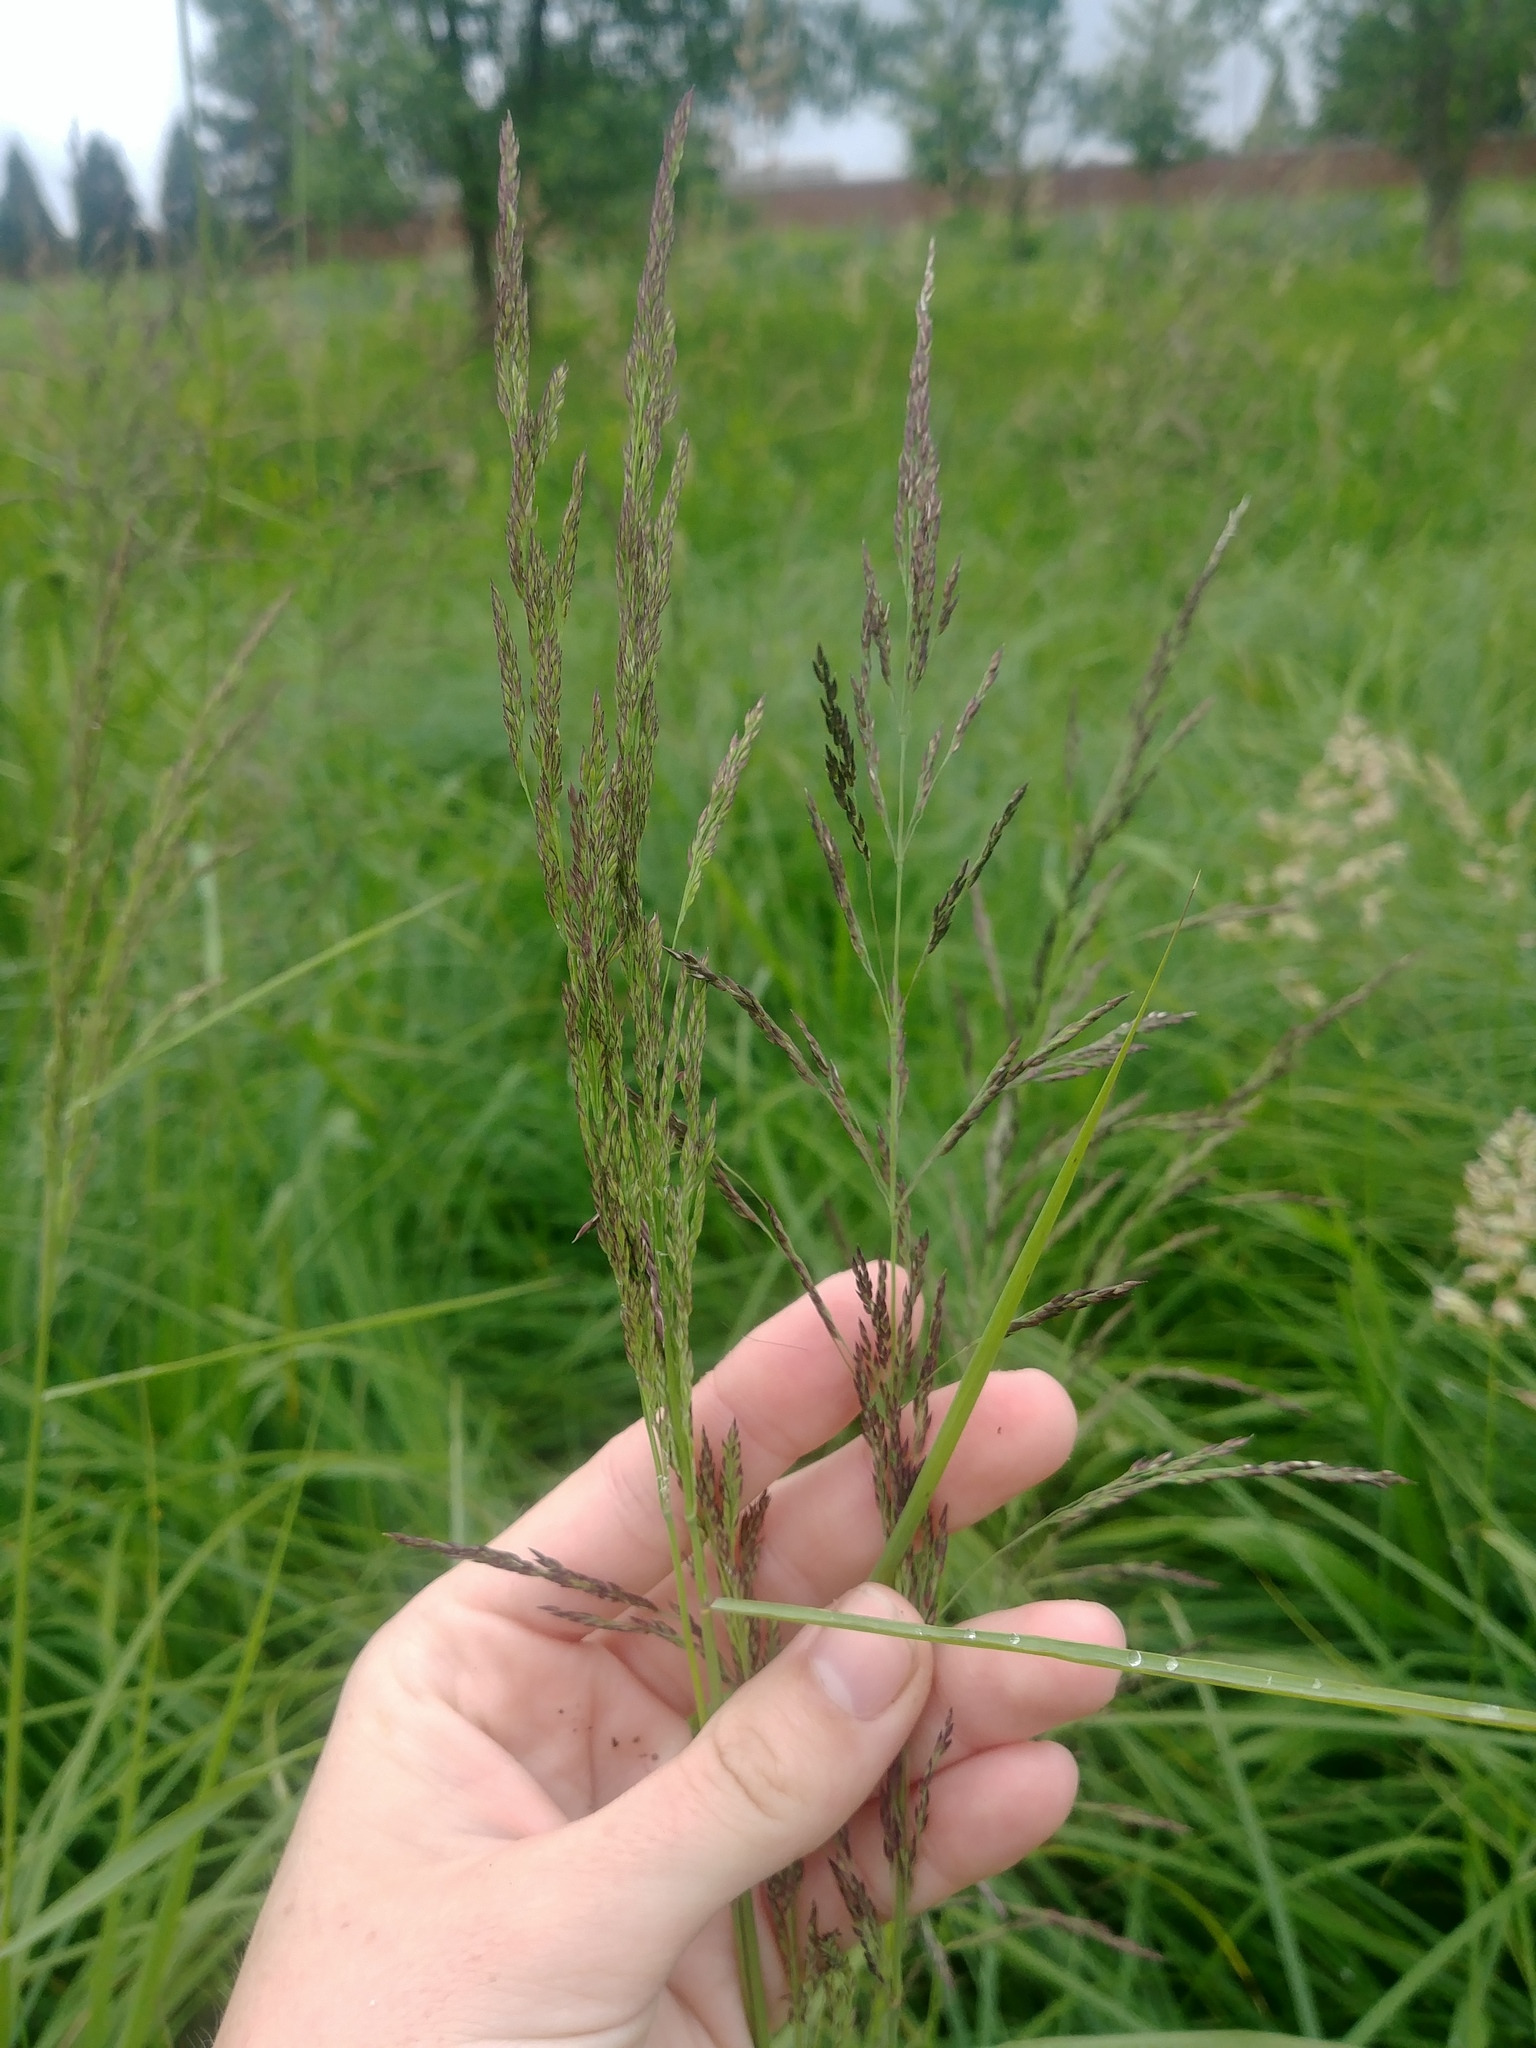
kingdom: Plantae
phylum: Tracheophyta
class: Liliopsida
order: Poales
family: Poaceae
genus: Calamagrostis
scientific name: Calamagrostis canadensis
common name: Canada bluejoint
